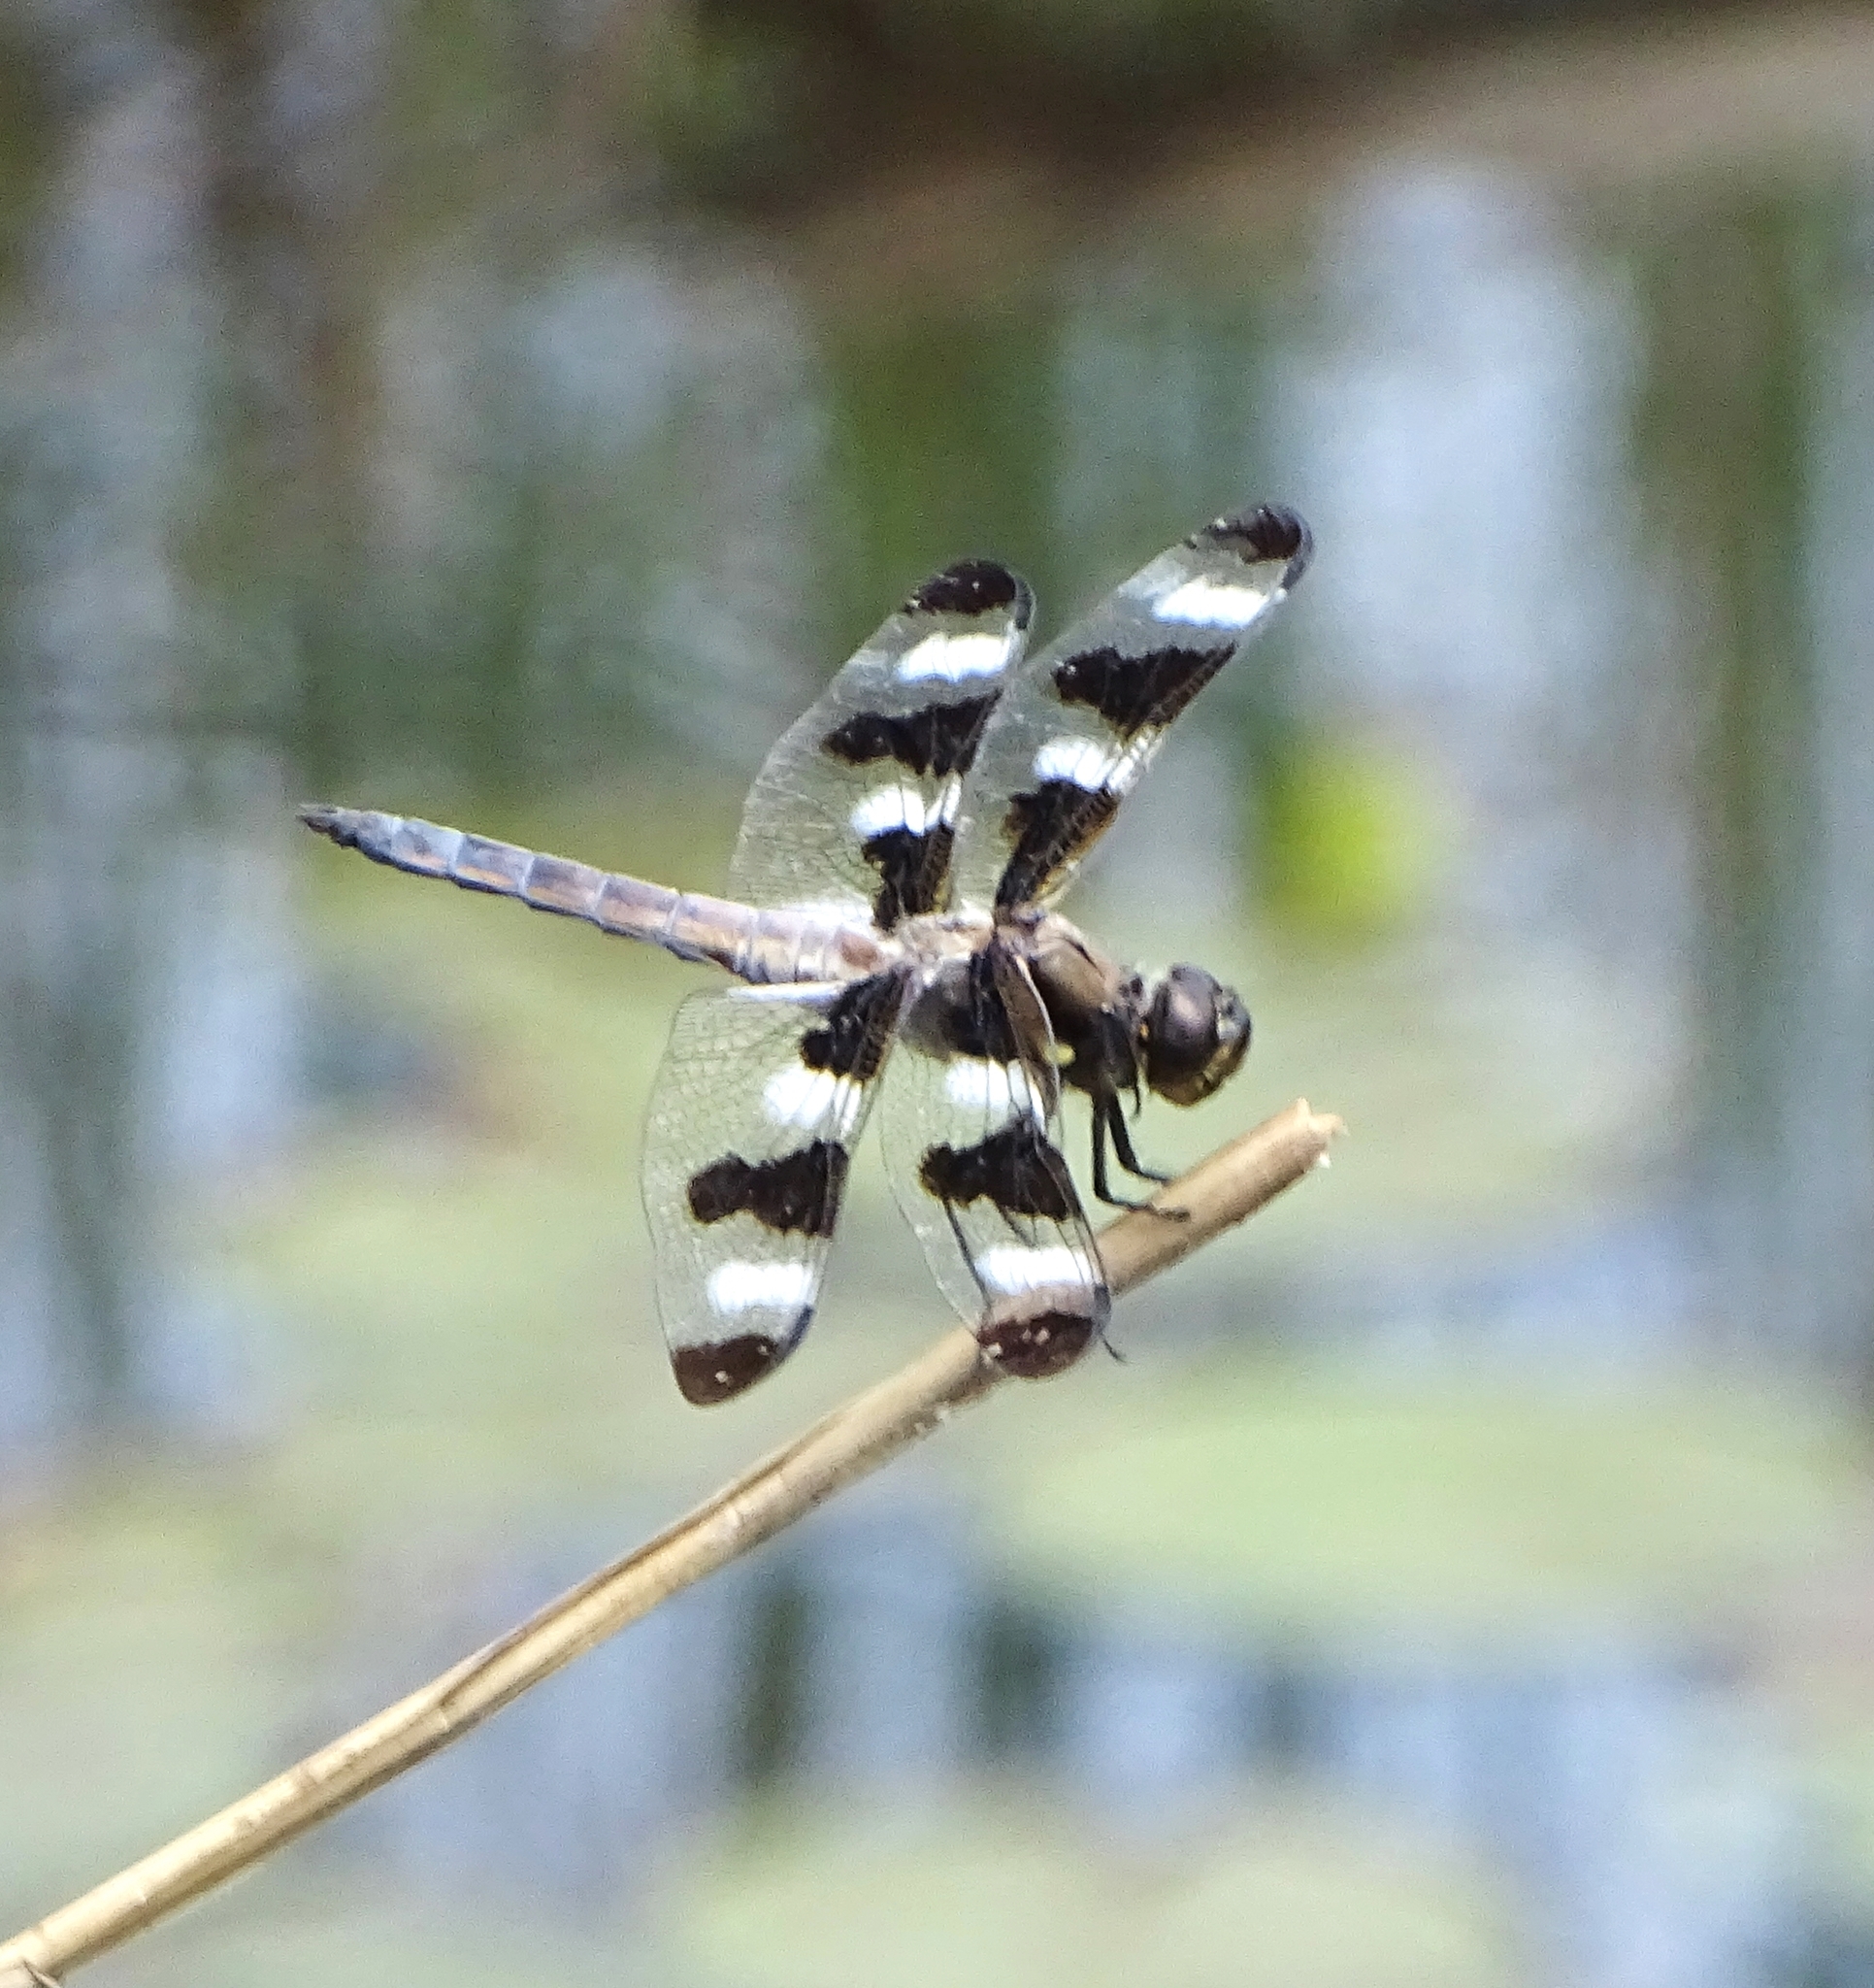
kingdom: Animalia
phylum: Arthropoda
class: Insecta
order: Odonata
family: Libellulidae
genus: Libellula
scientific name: Libellula pulchella
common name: Twelve-spotted skimmer
